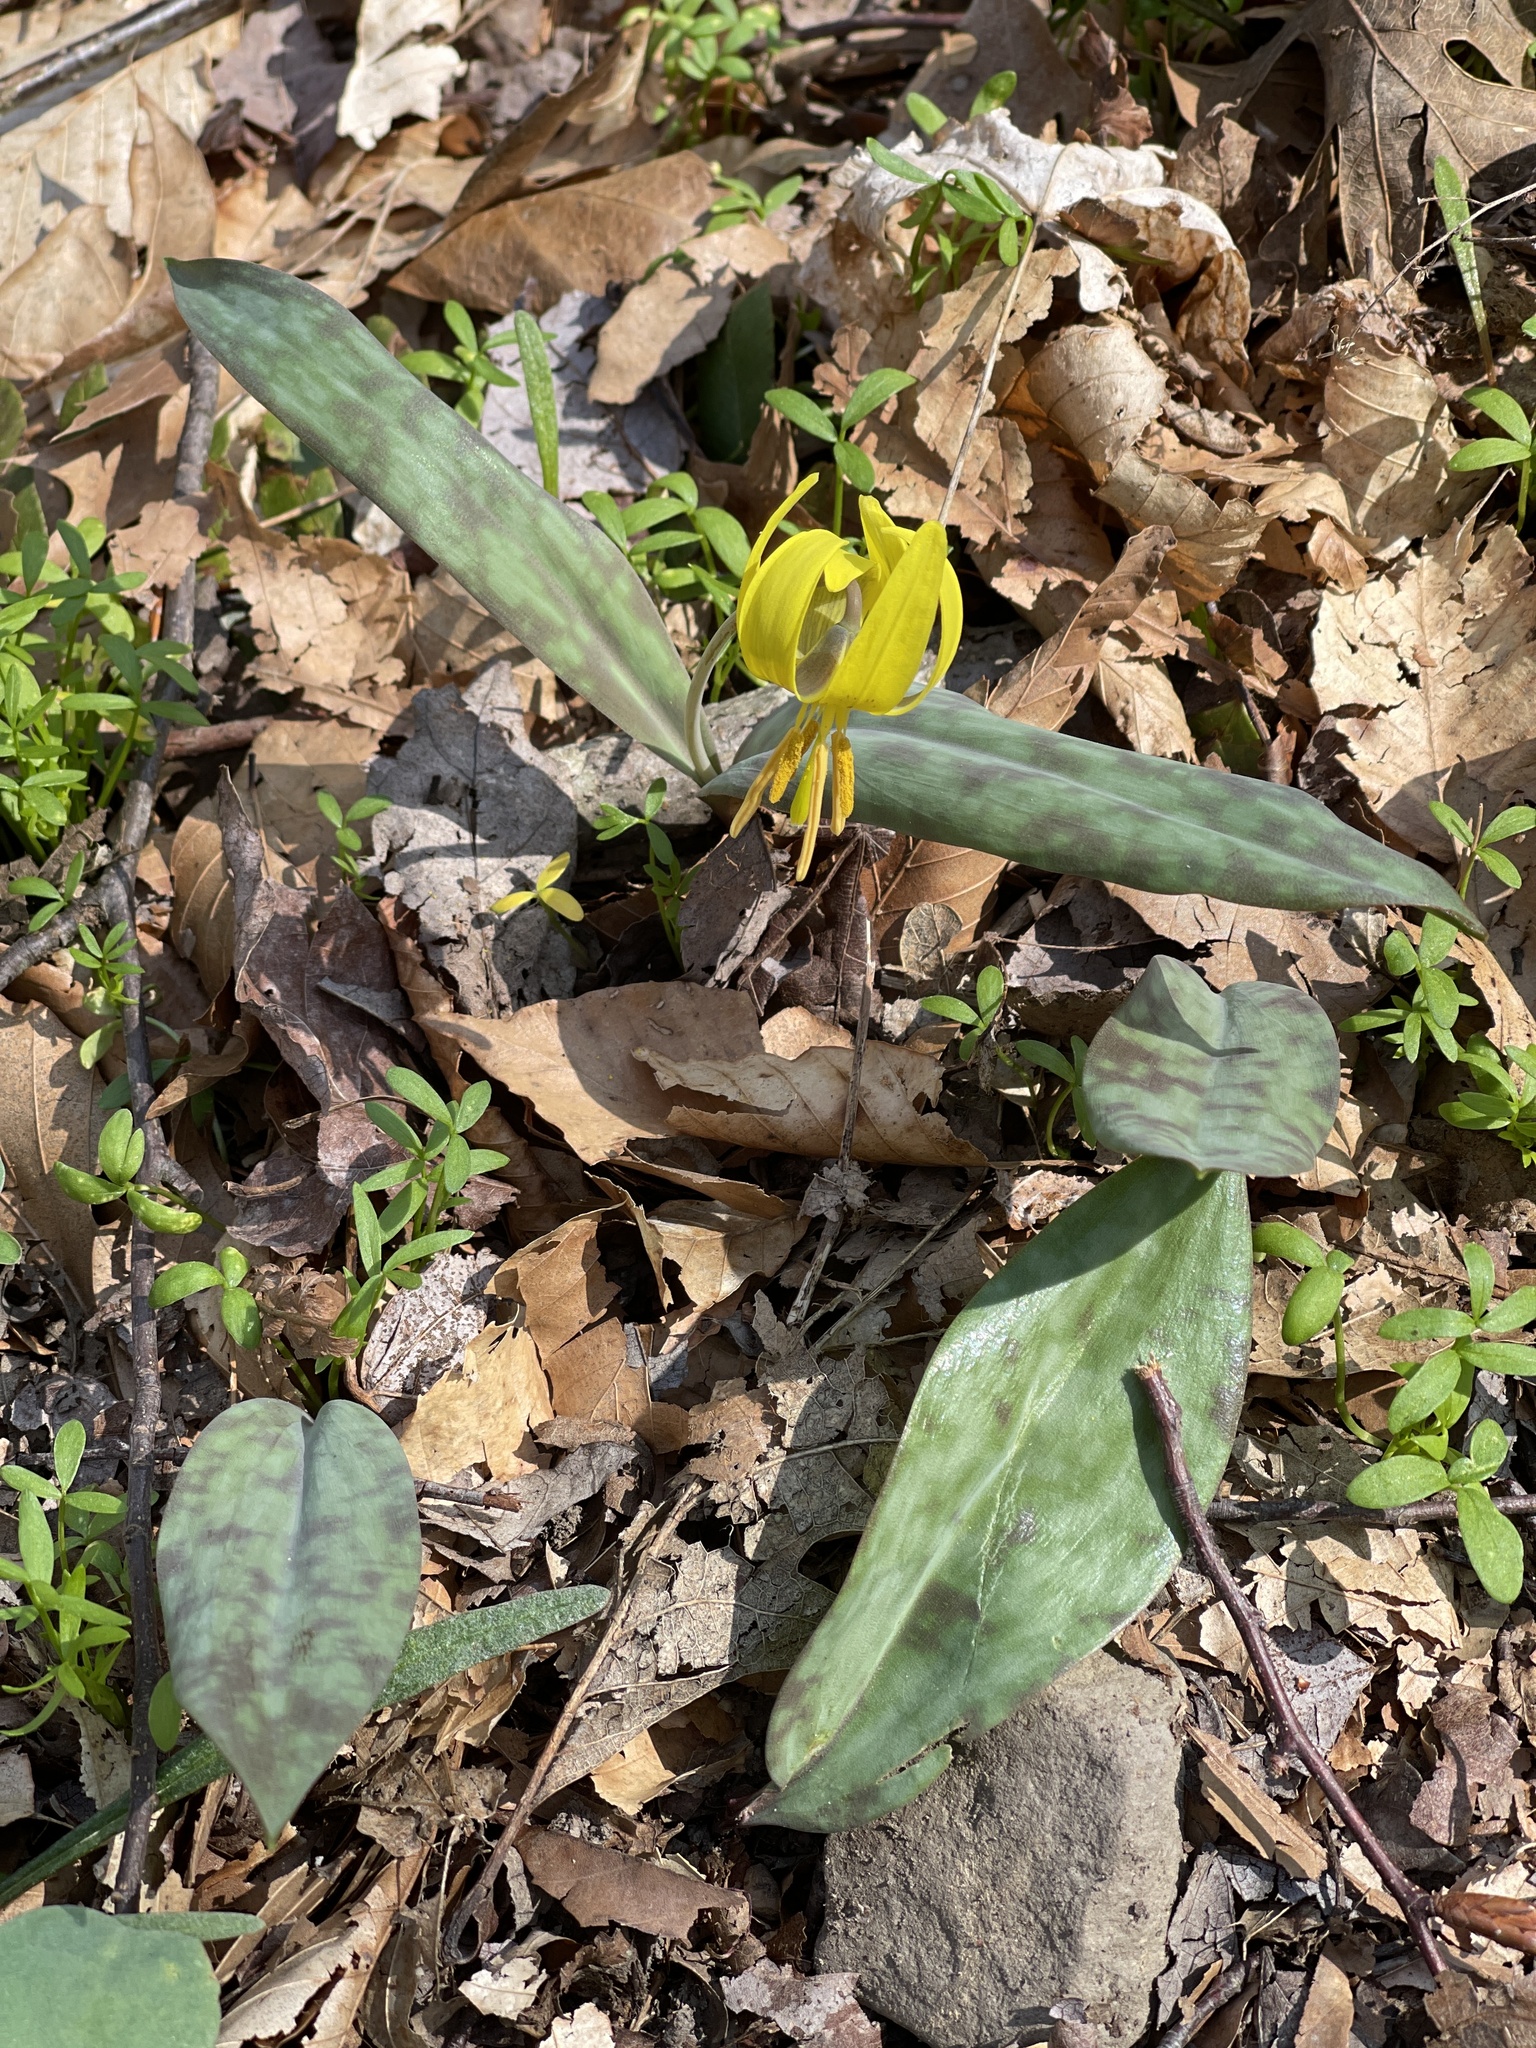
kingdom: Plantae
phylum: Tracheophyta
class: Liliopsida
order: Liliales
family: Liliaceae
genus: Erythronium
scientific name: Erythronium americanum
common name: Yellow adder's-tongue
